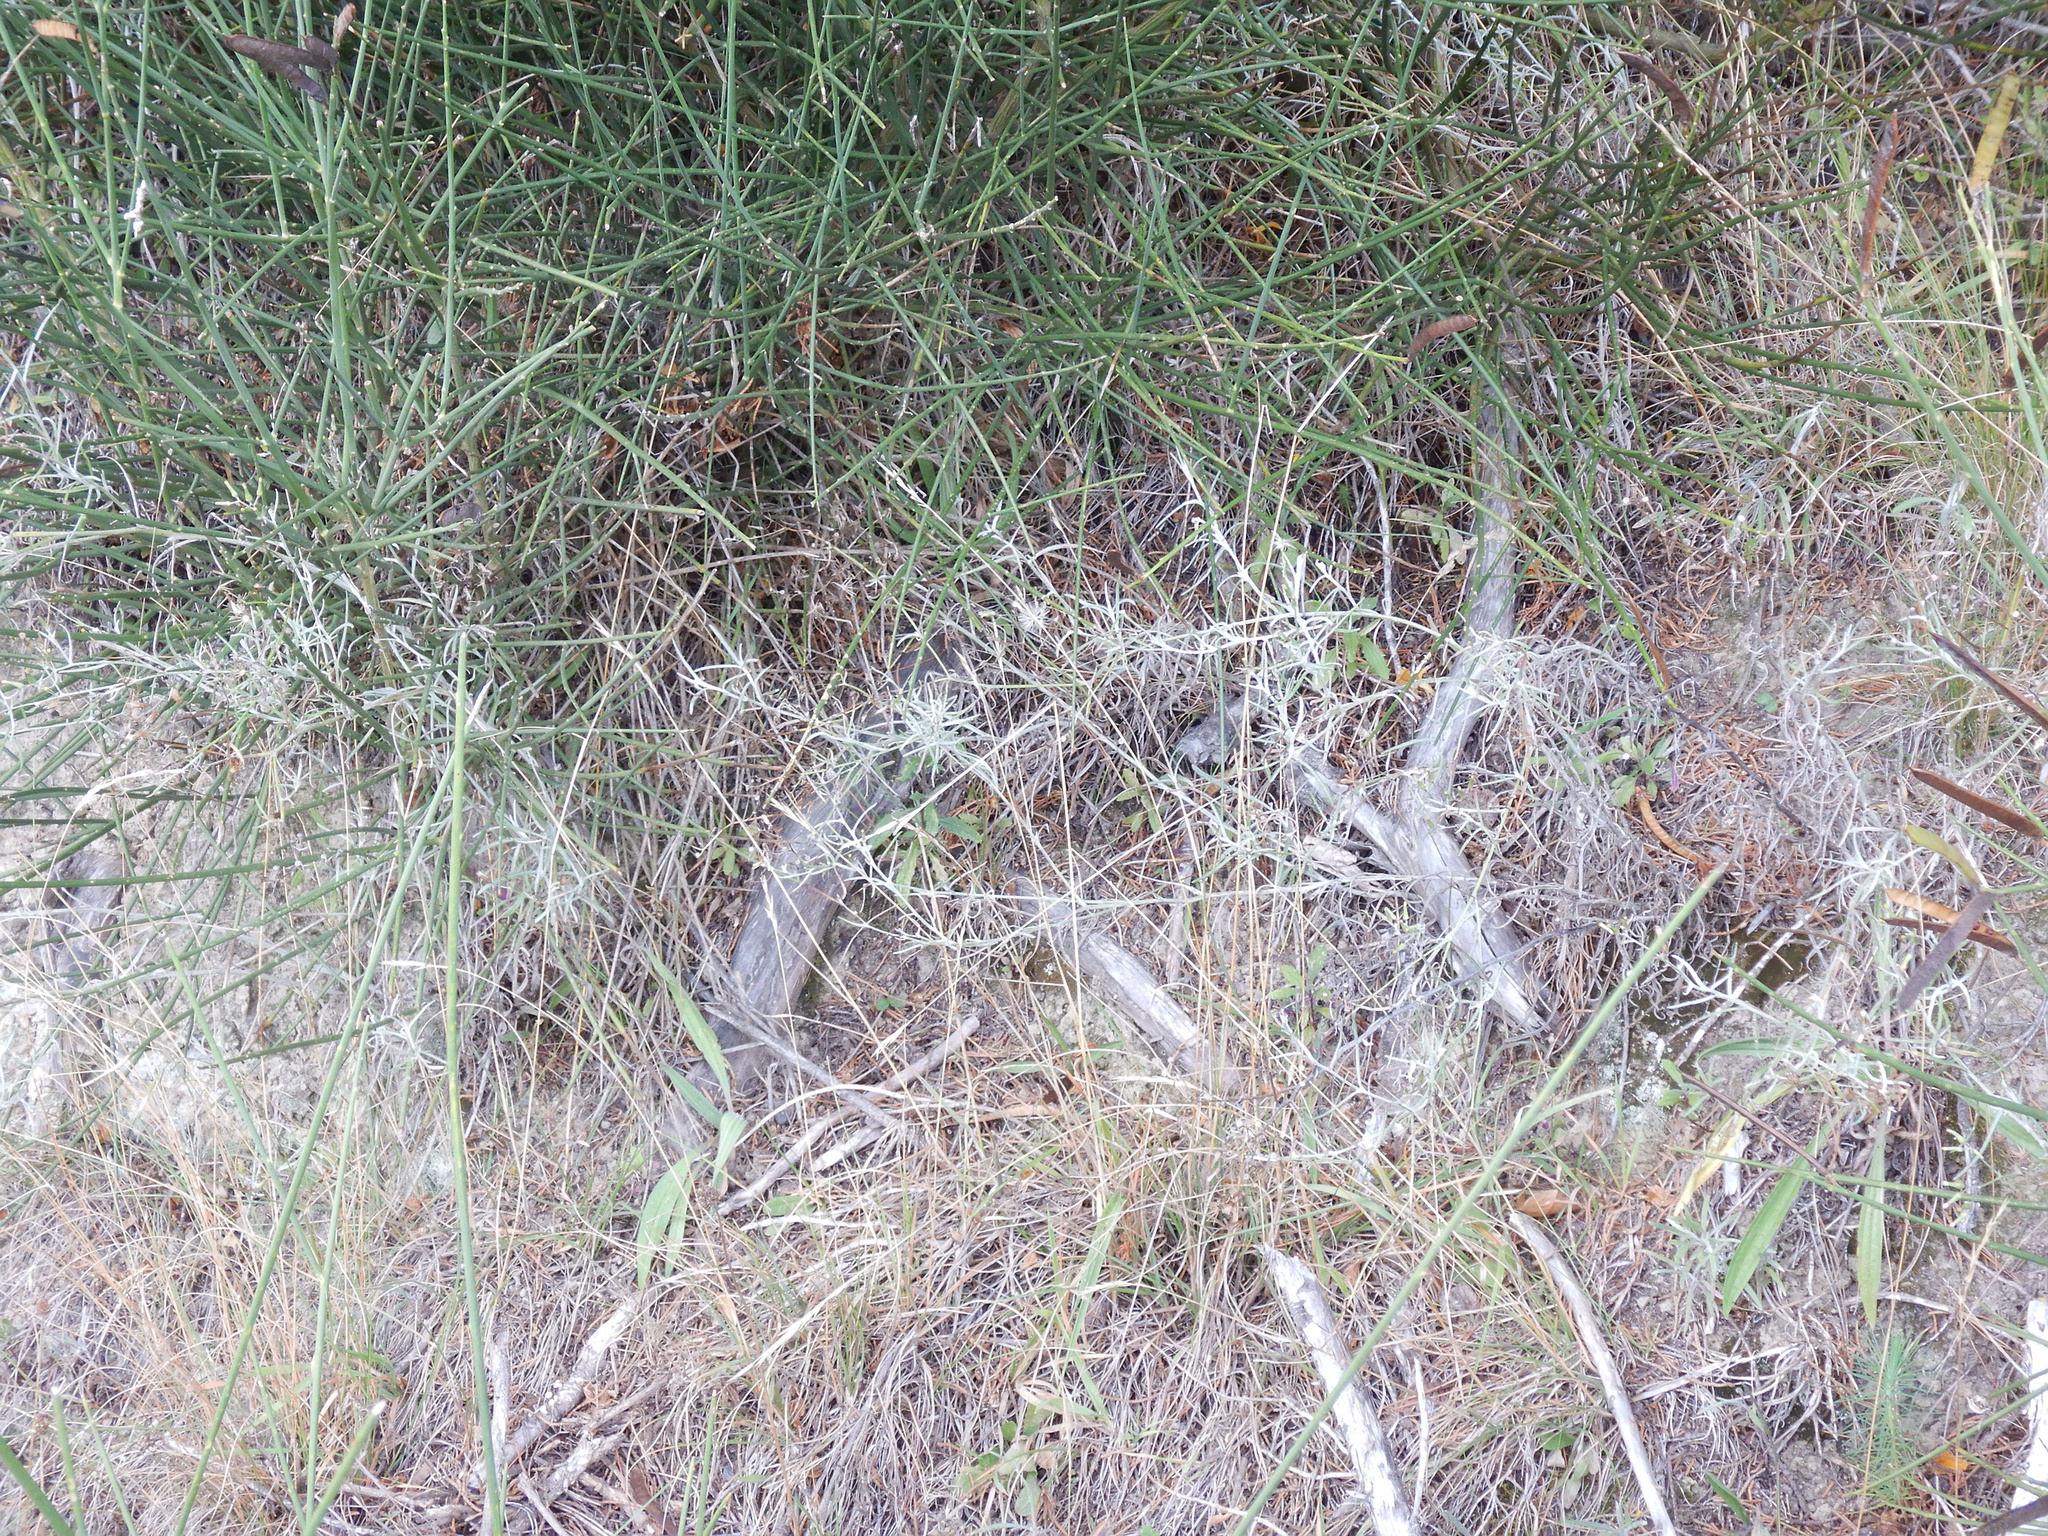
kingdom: Plantae
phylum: Tracheophyta
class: Magnoliopsida
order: Asterales
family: Asteraceae
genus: Senecio
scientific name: Senecio quadridentatus
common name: Cotton fireweed
